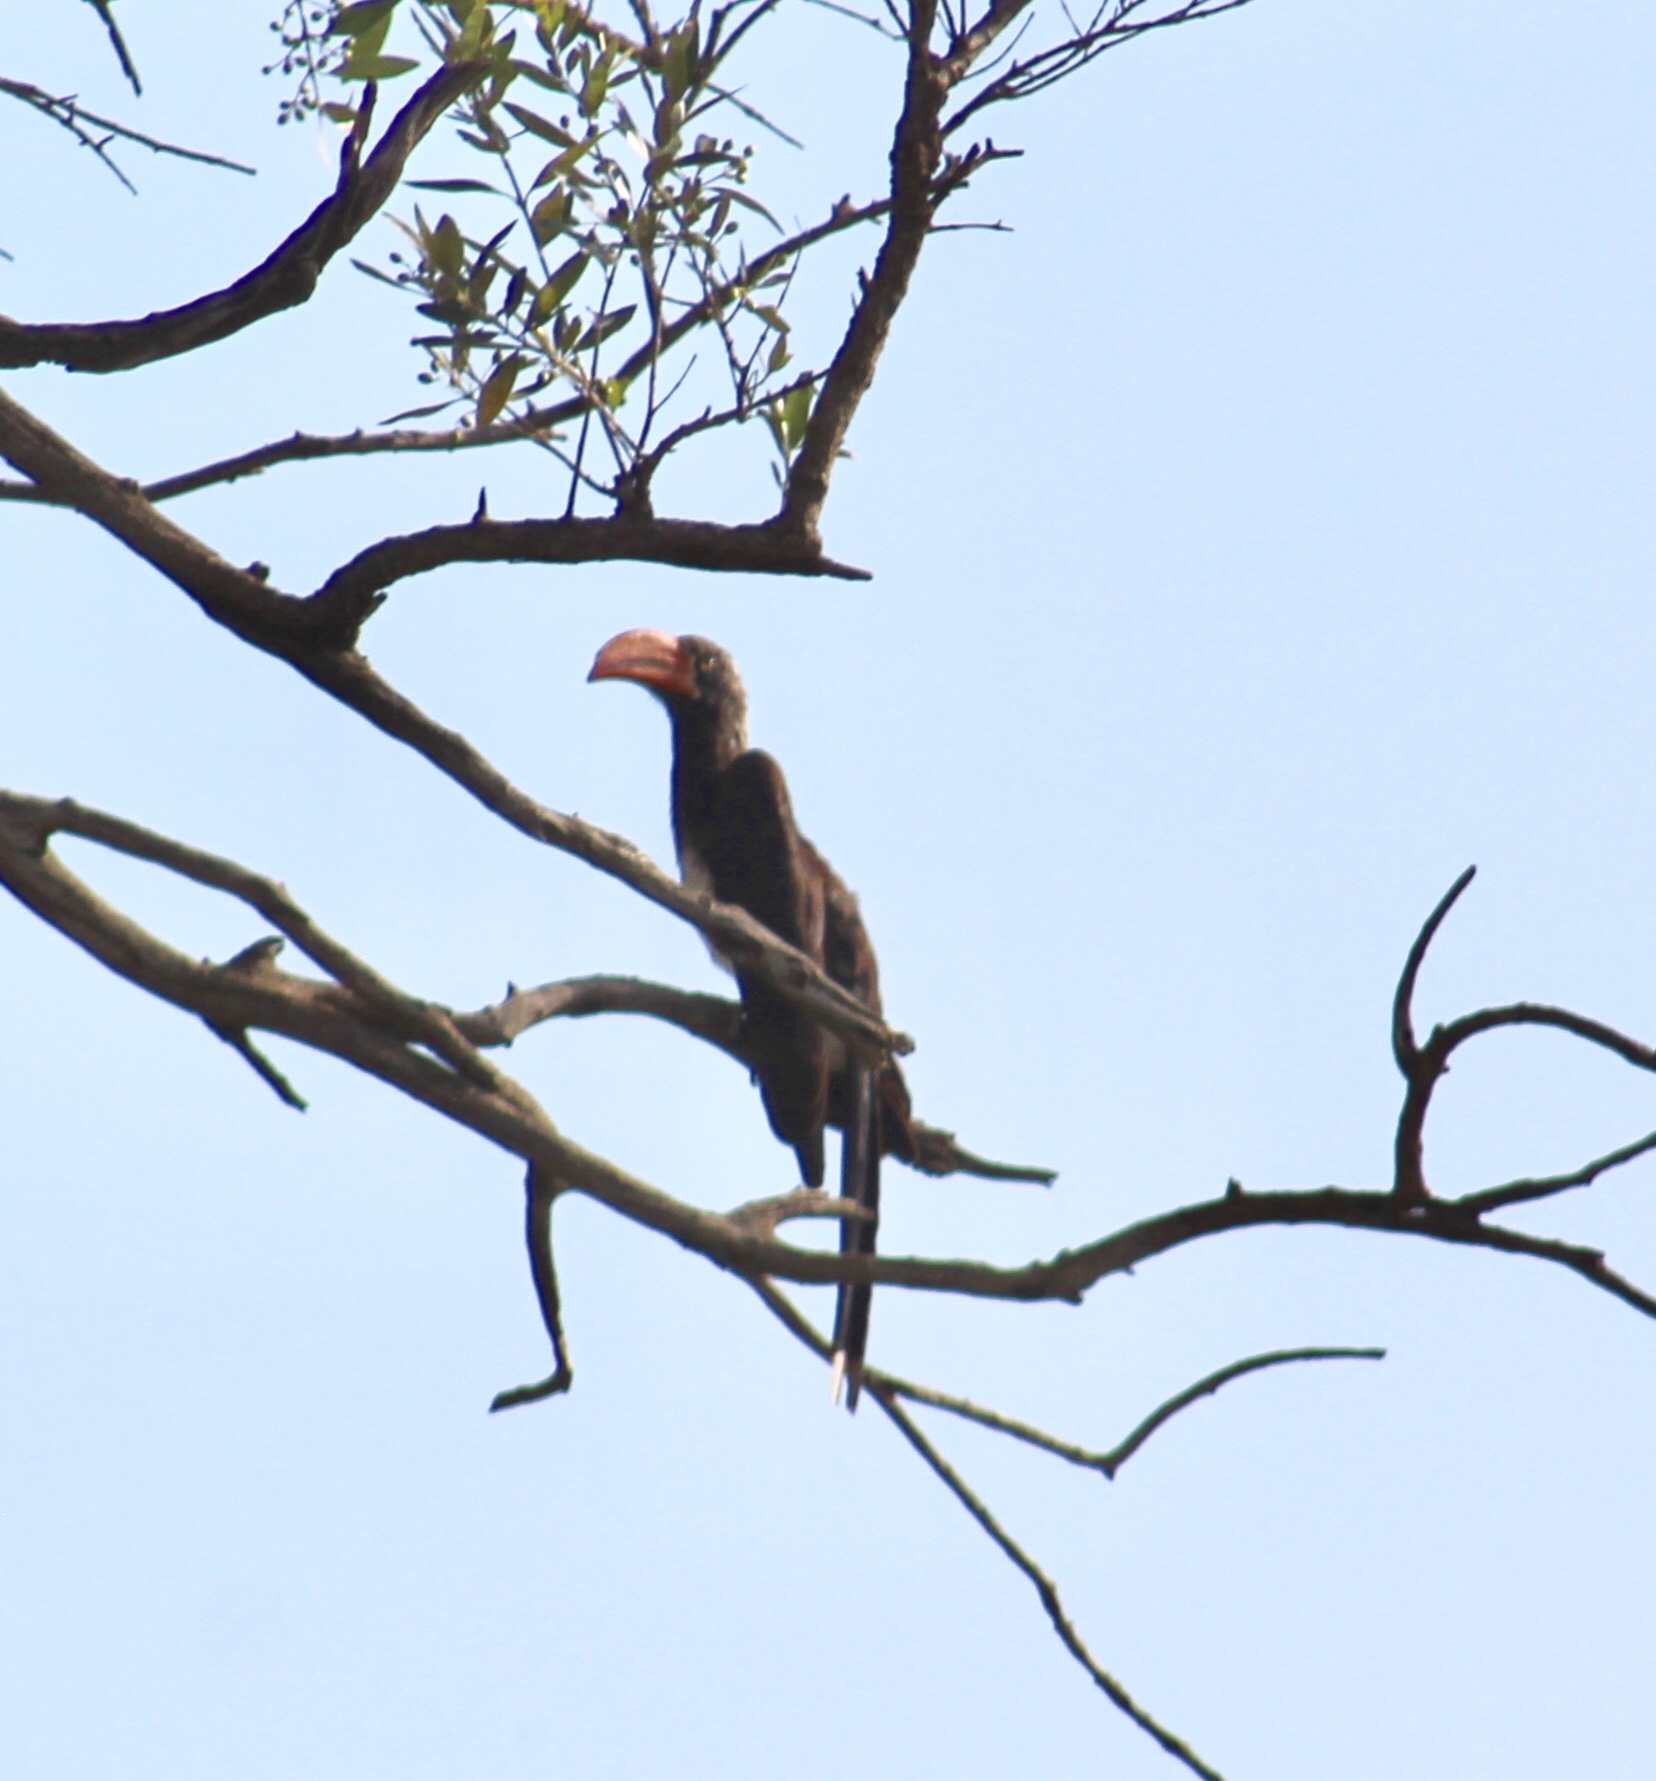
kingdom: Animalia
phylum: Chordata
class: Aves
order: Bucerotiformes
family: Bucerotidae
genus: Lophoceros
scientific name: Lophoceros alboterminatus
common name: Crowned hornbill
